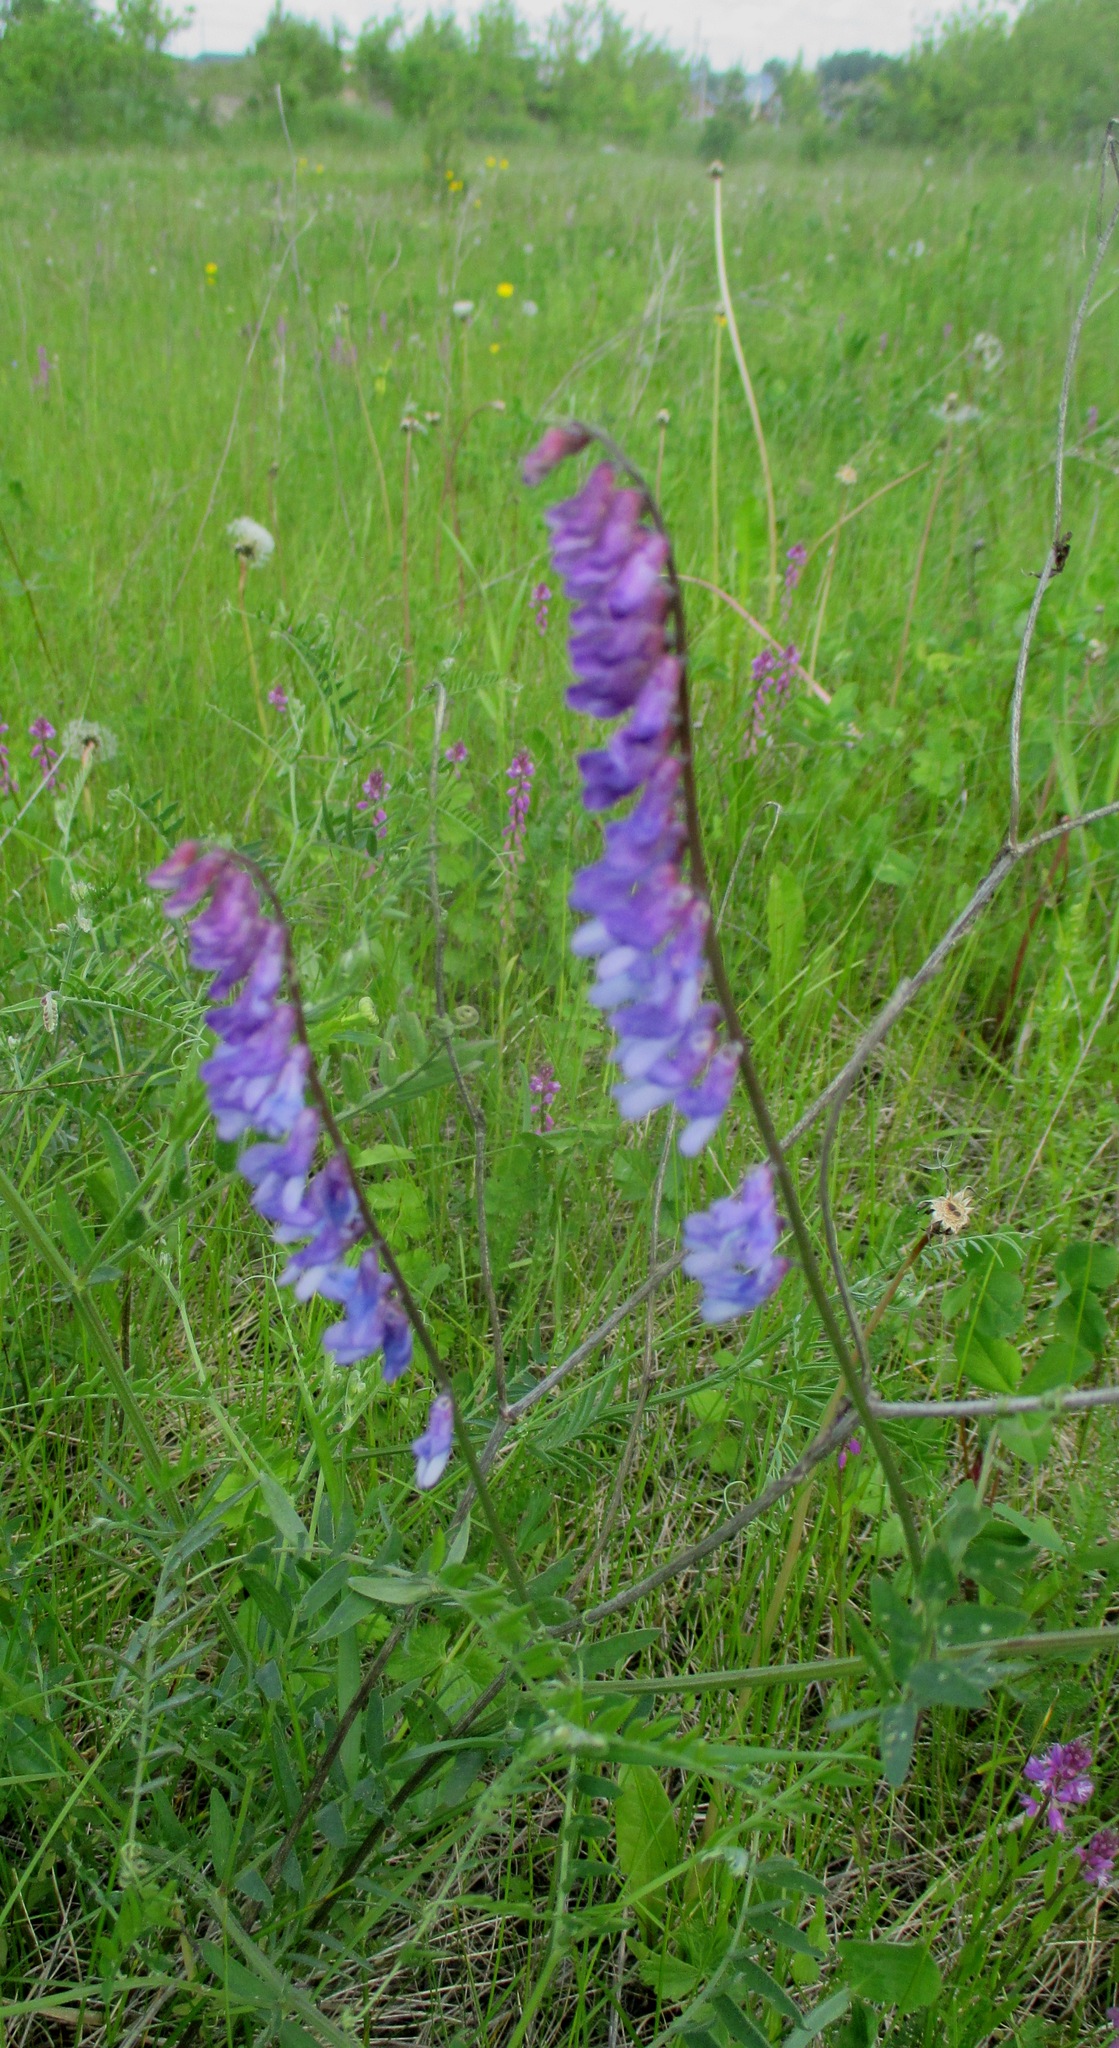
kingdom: Plantae
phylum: Tracheophyta
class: Magnoliopsida
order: Fabales
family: Fabaceae
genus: Vicia
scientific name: Vicia cracca
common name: Bird vetch
